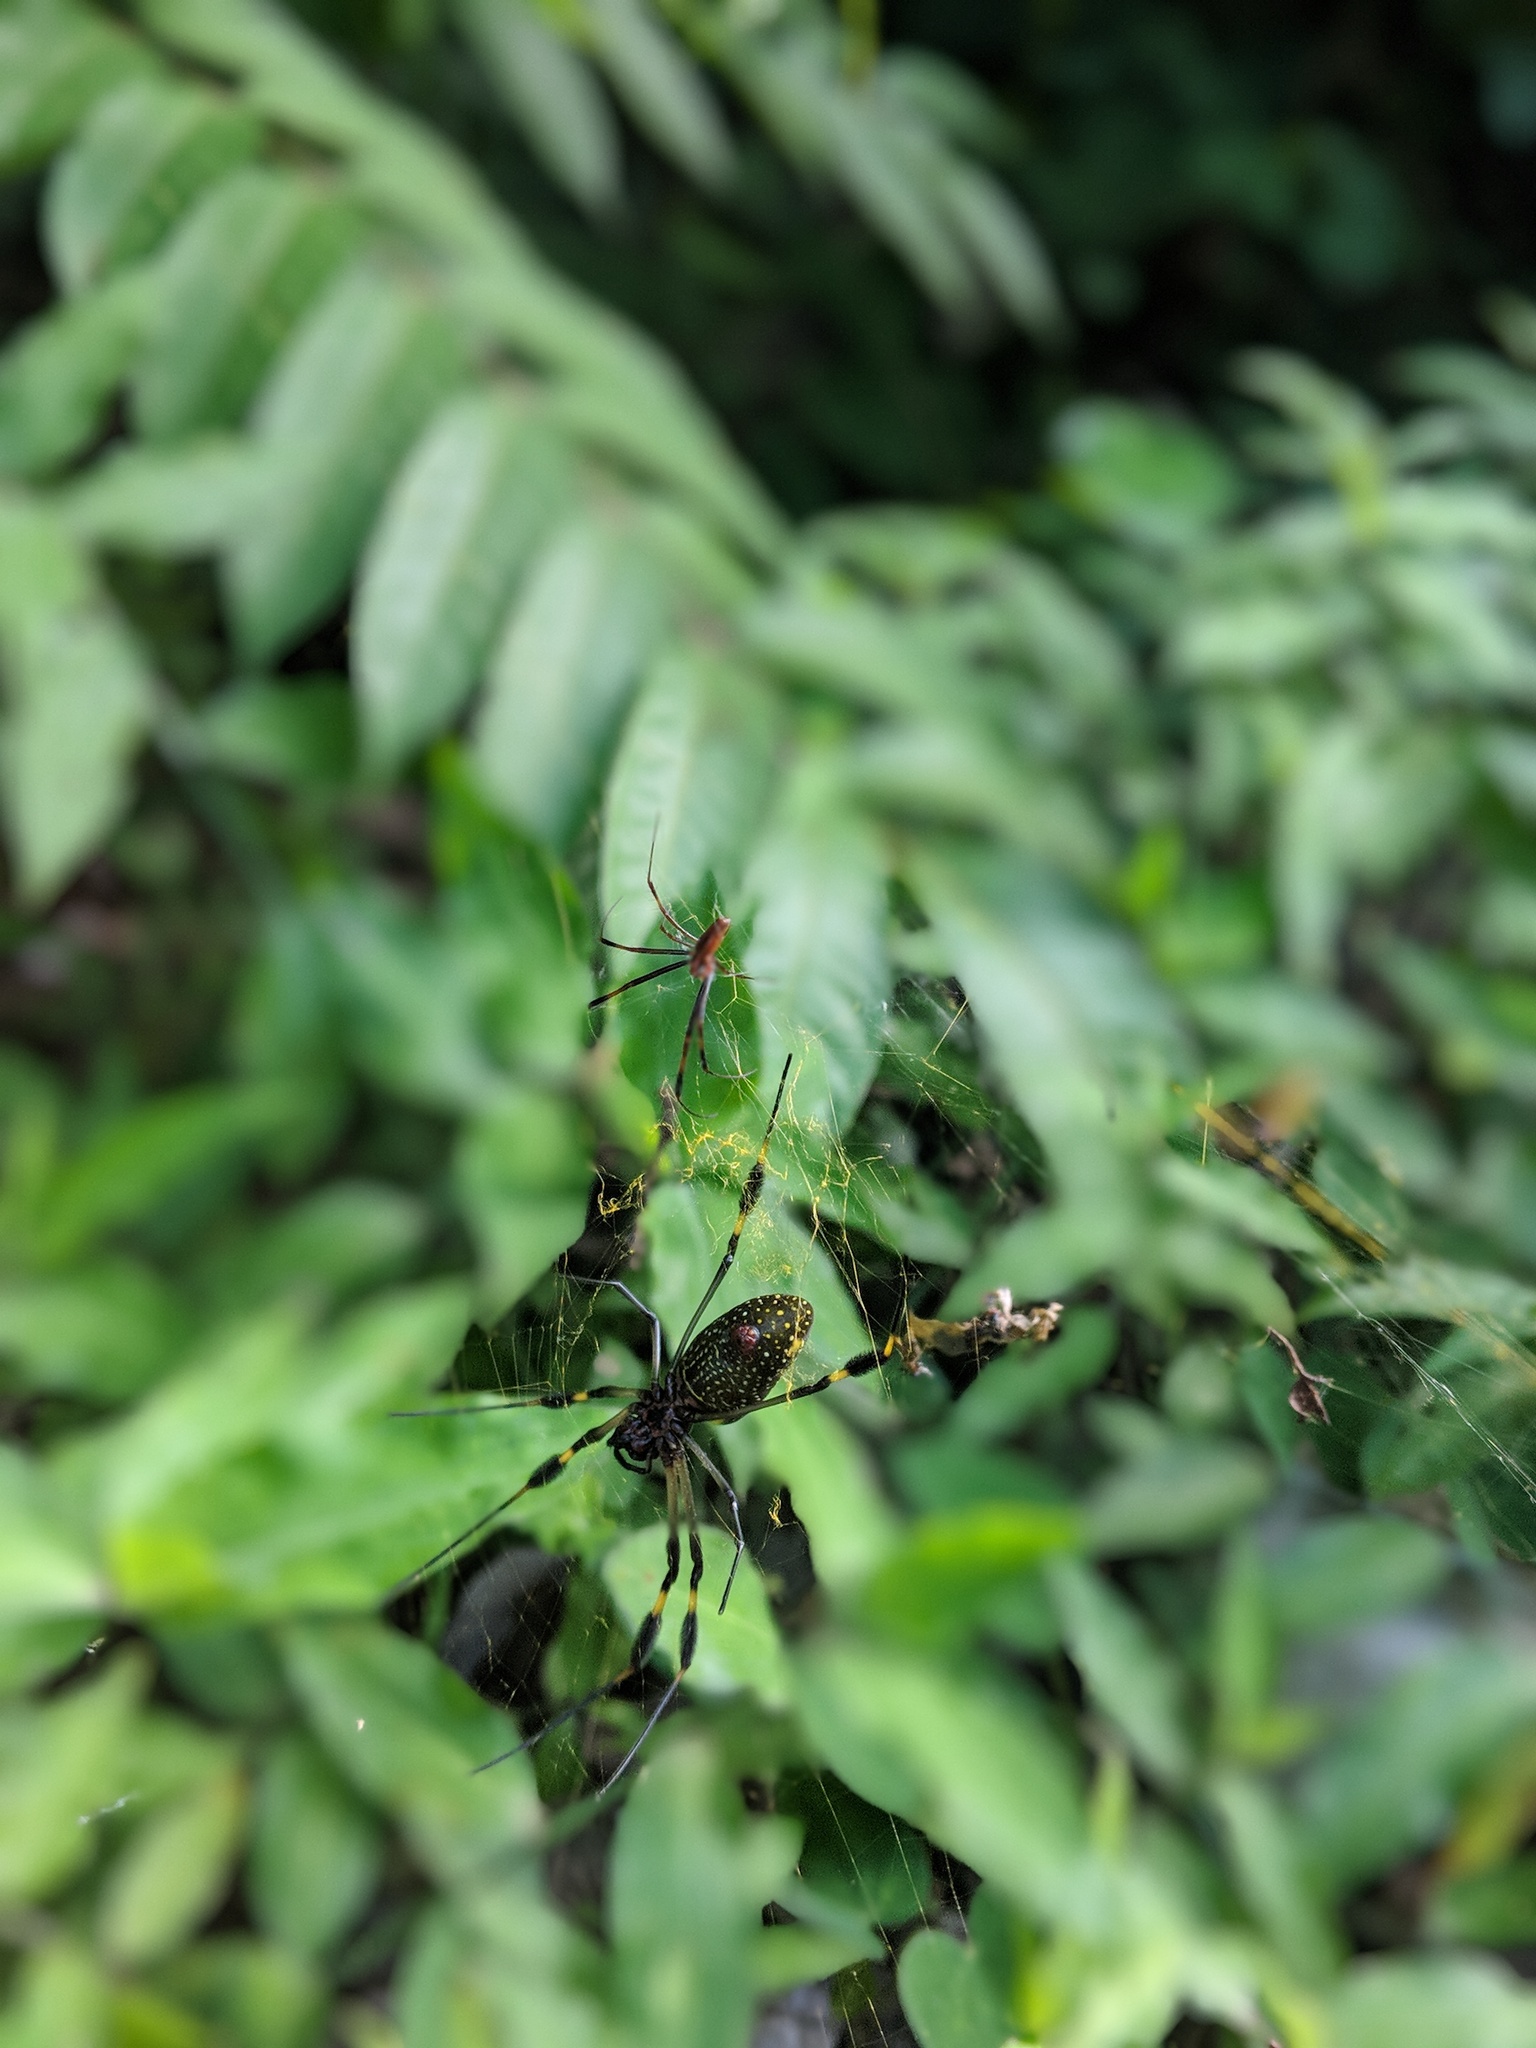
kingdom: Animalia
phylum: Arthropoda
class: Arachnida
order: Araneae
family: Araneidae
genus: Trichonephila
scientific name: Trichonephila clavipes
